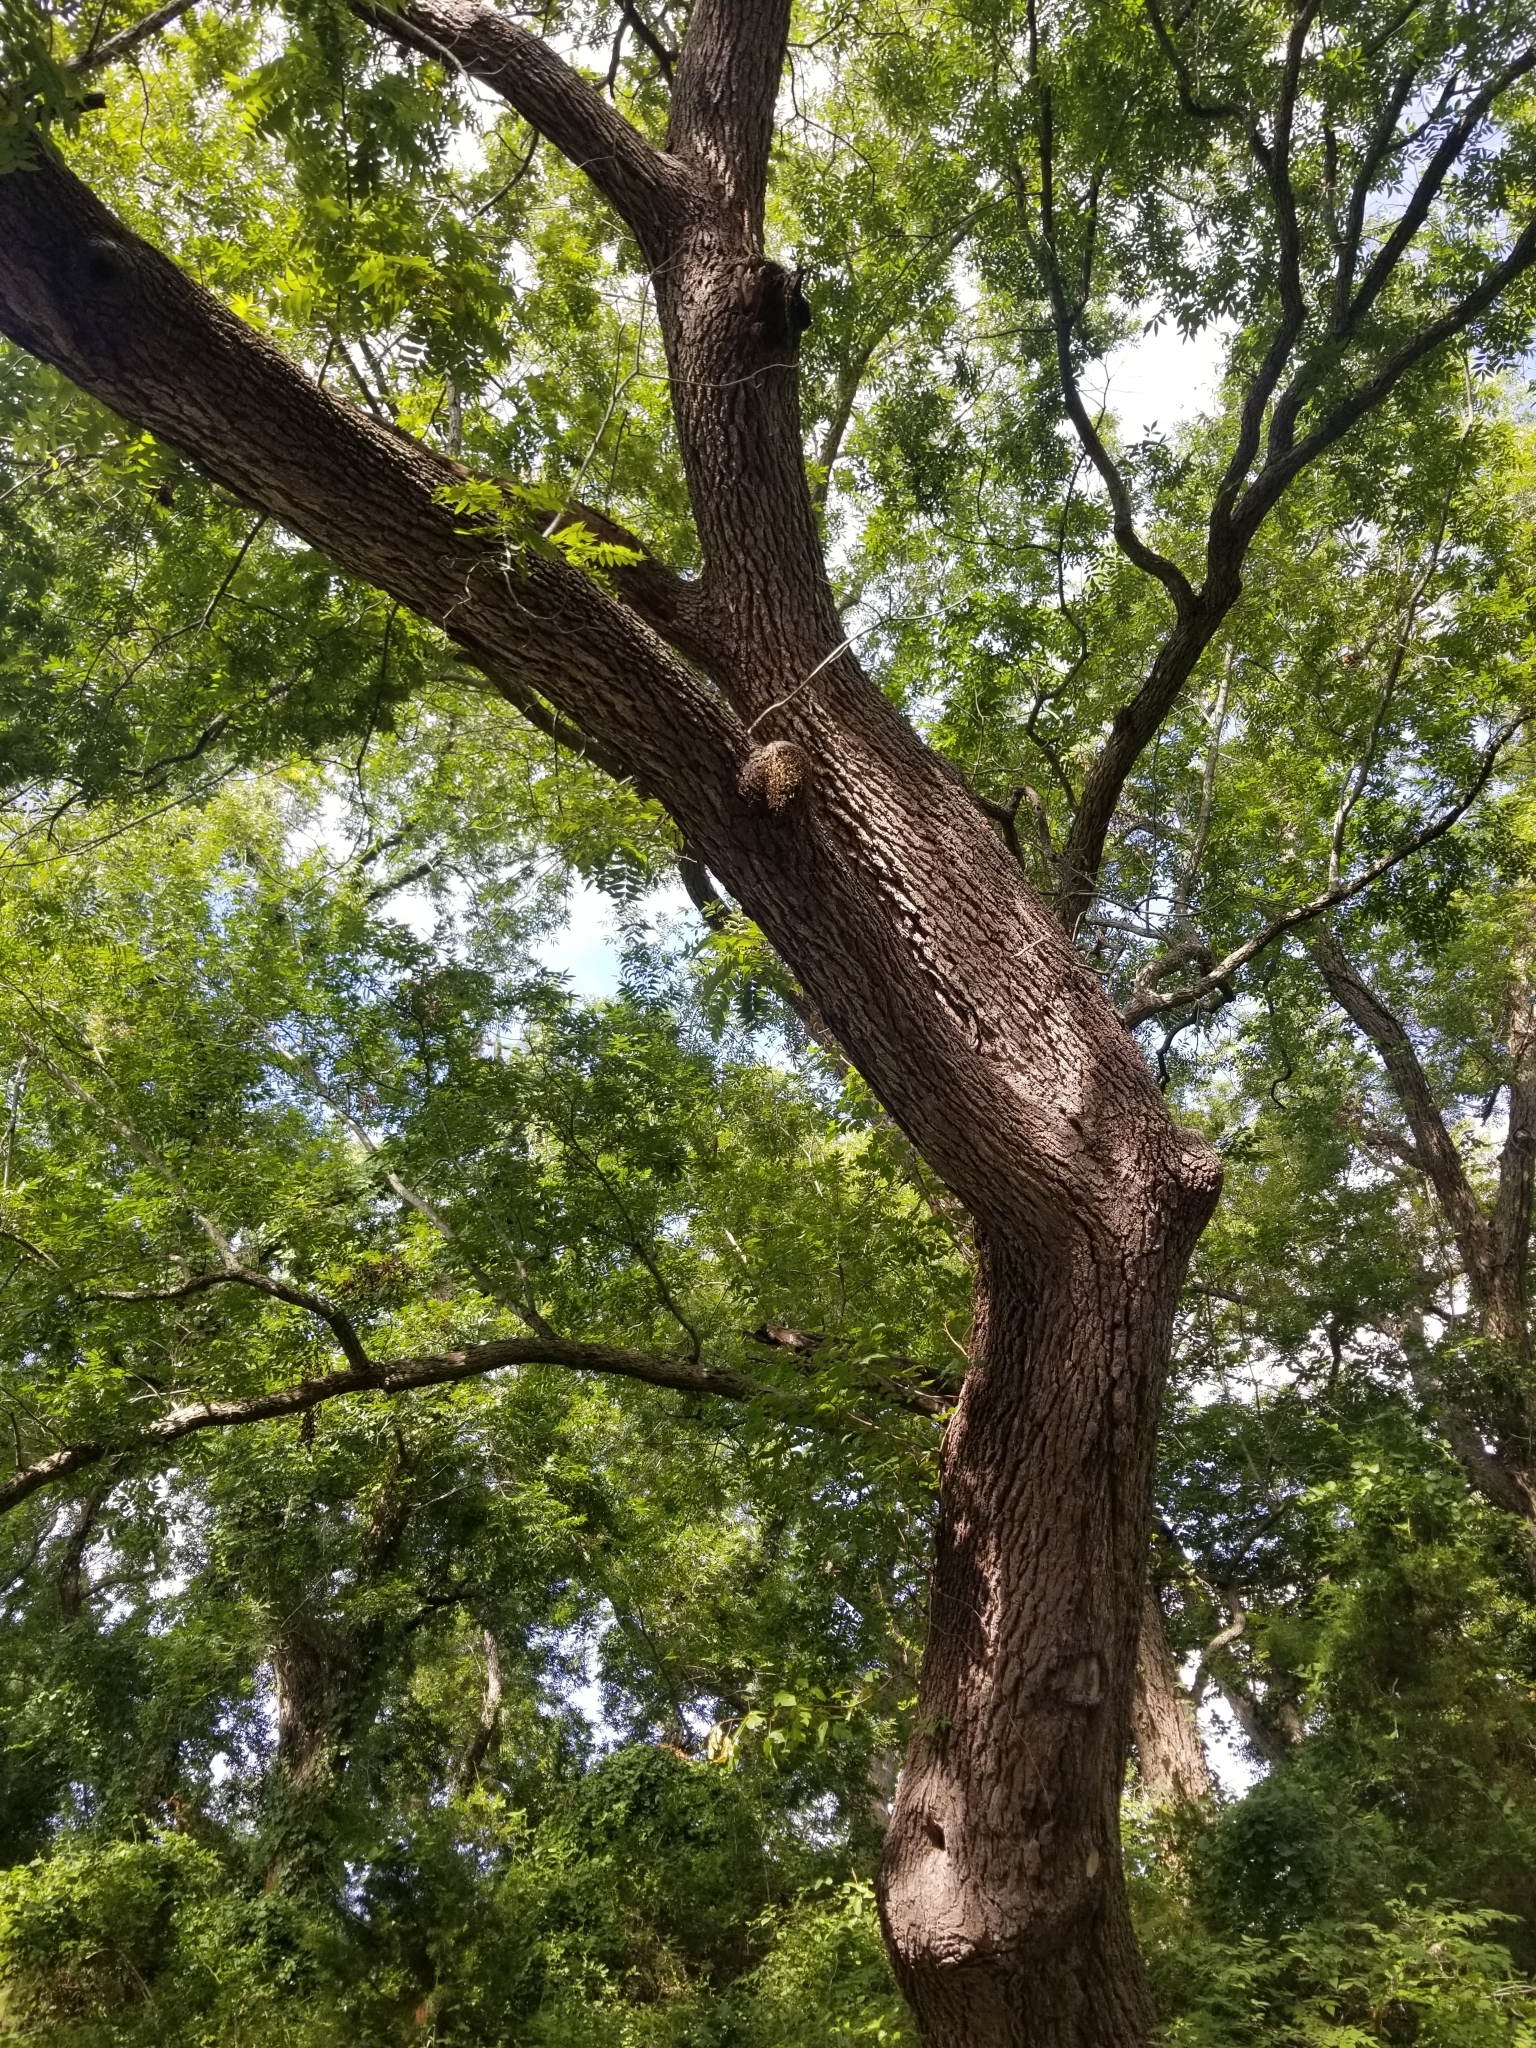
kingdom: Animalia
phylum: Arthropoda
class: Insecta
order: Hymenoptera
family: Apidae
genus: Apis
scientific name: Apis mellifera
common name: Honey bee
